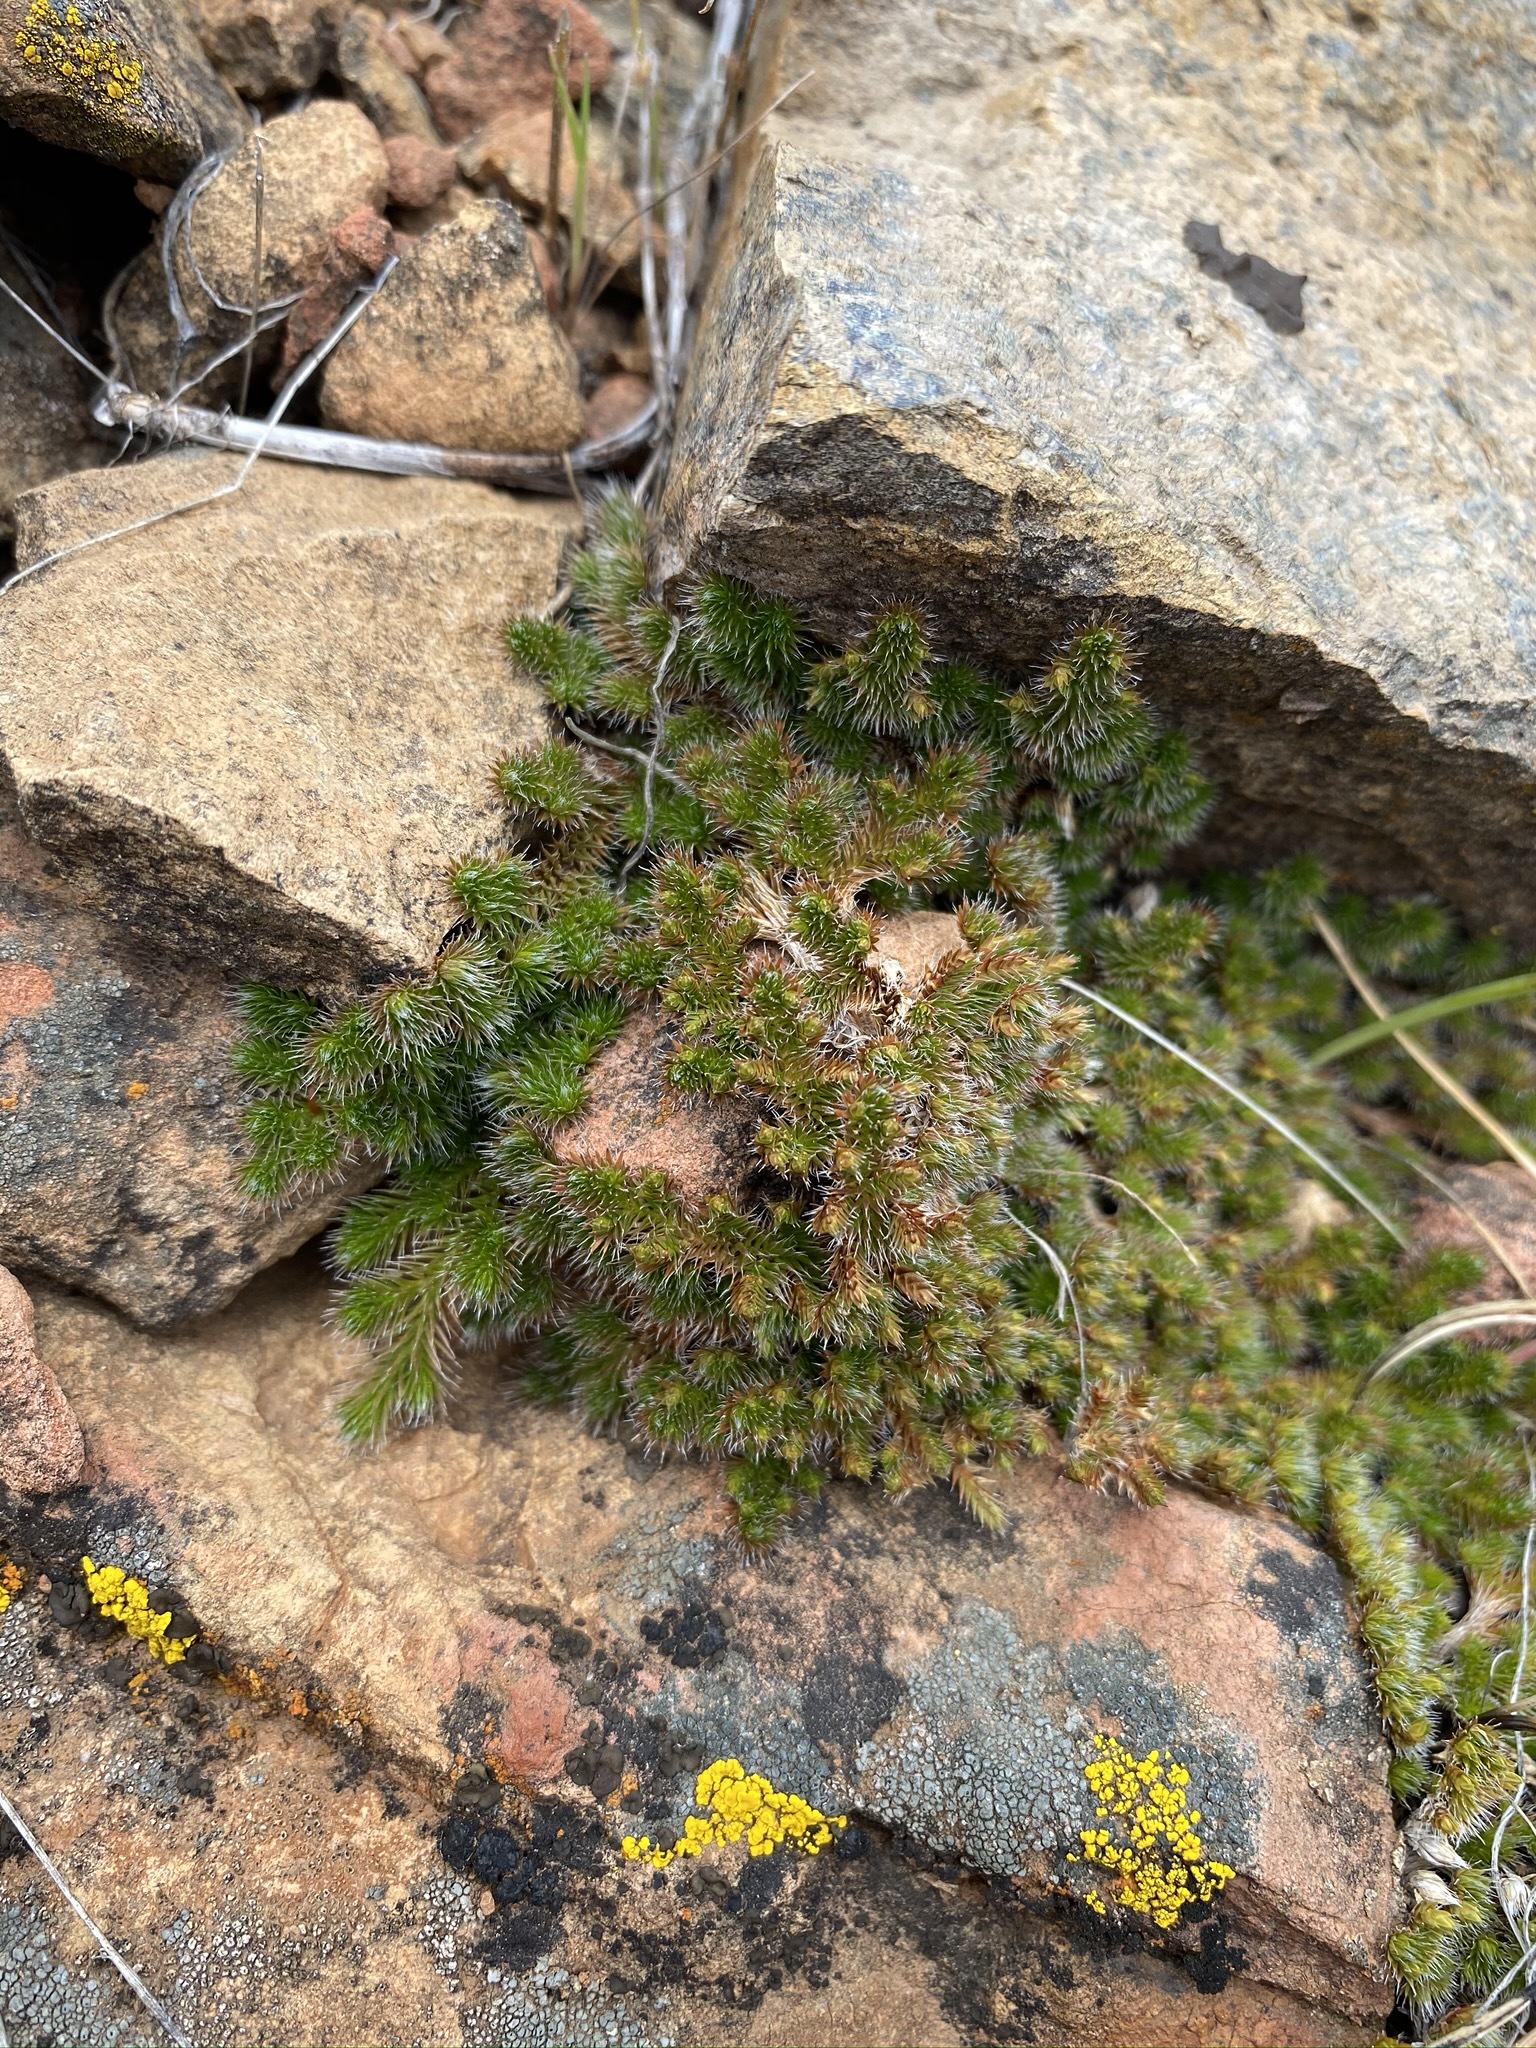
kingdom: Plantae
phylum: Tracheophyta
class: Lycopodiopsida
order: Selaginellales
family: Selaginellaceae
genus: Selaginella
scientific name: Selaginella hansenii
